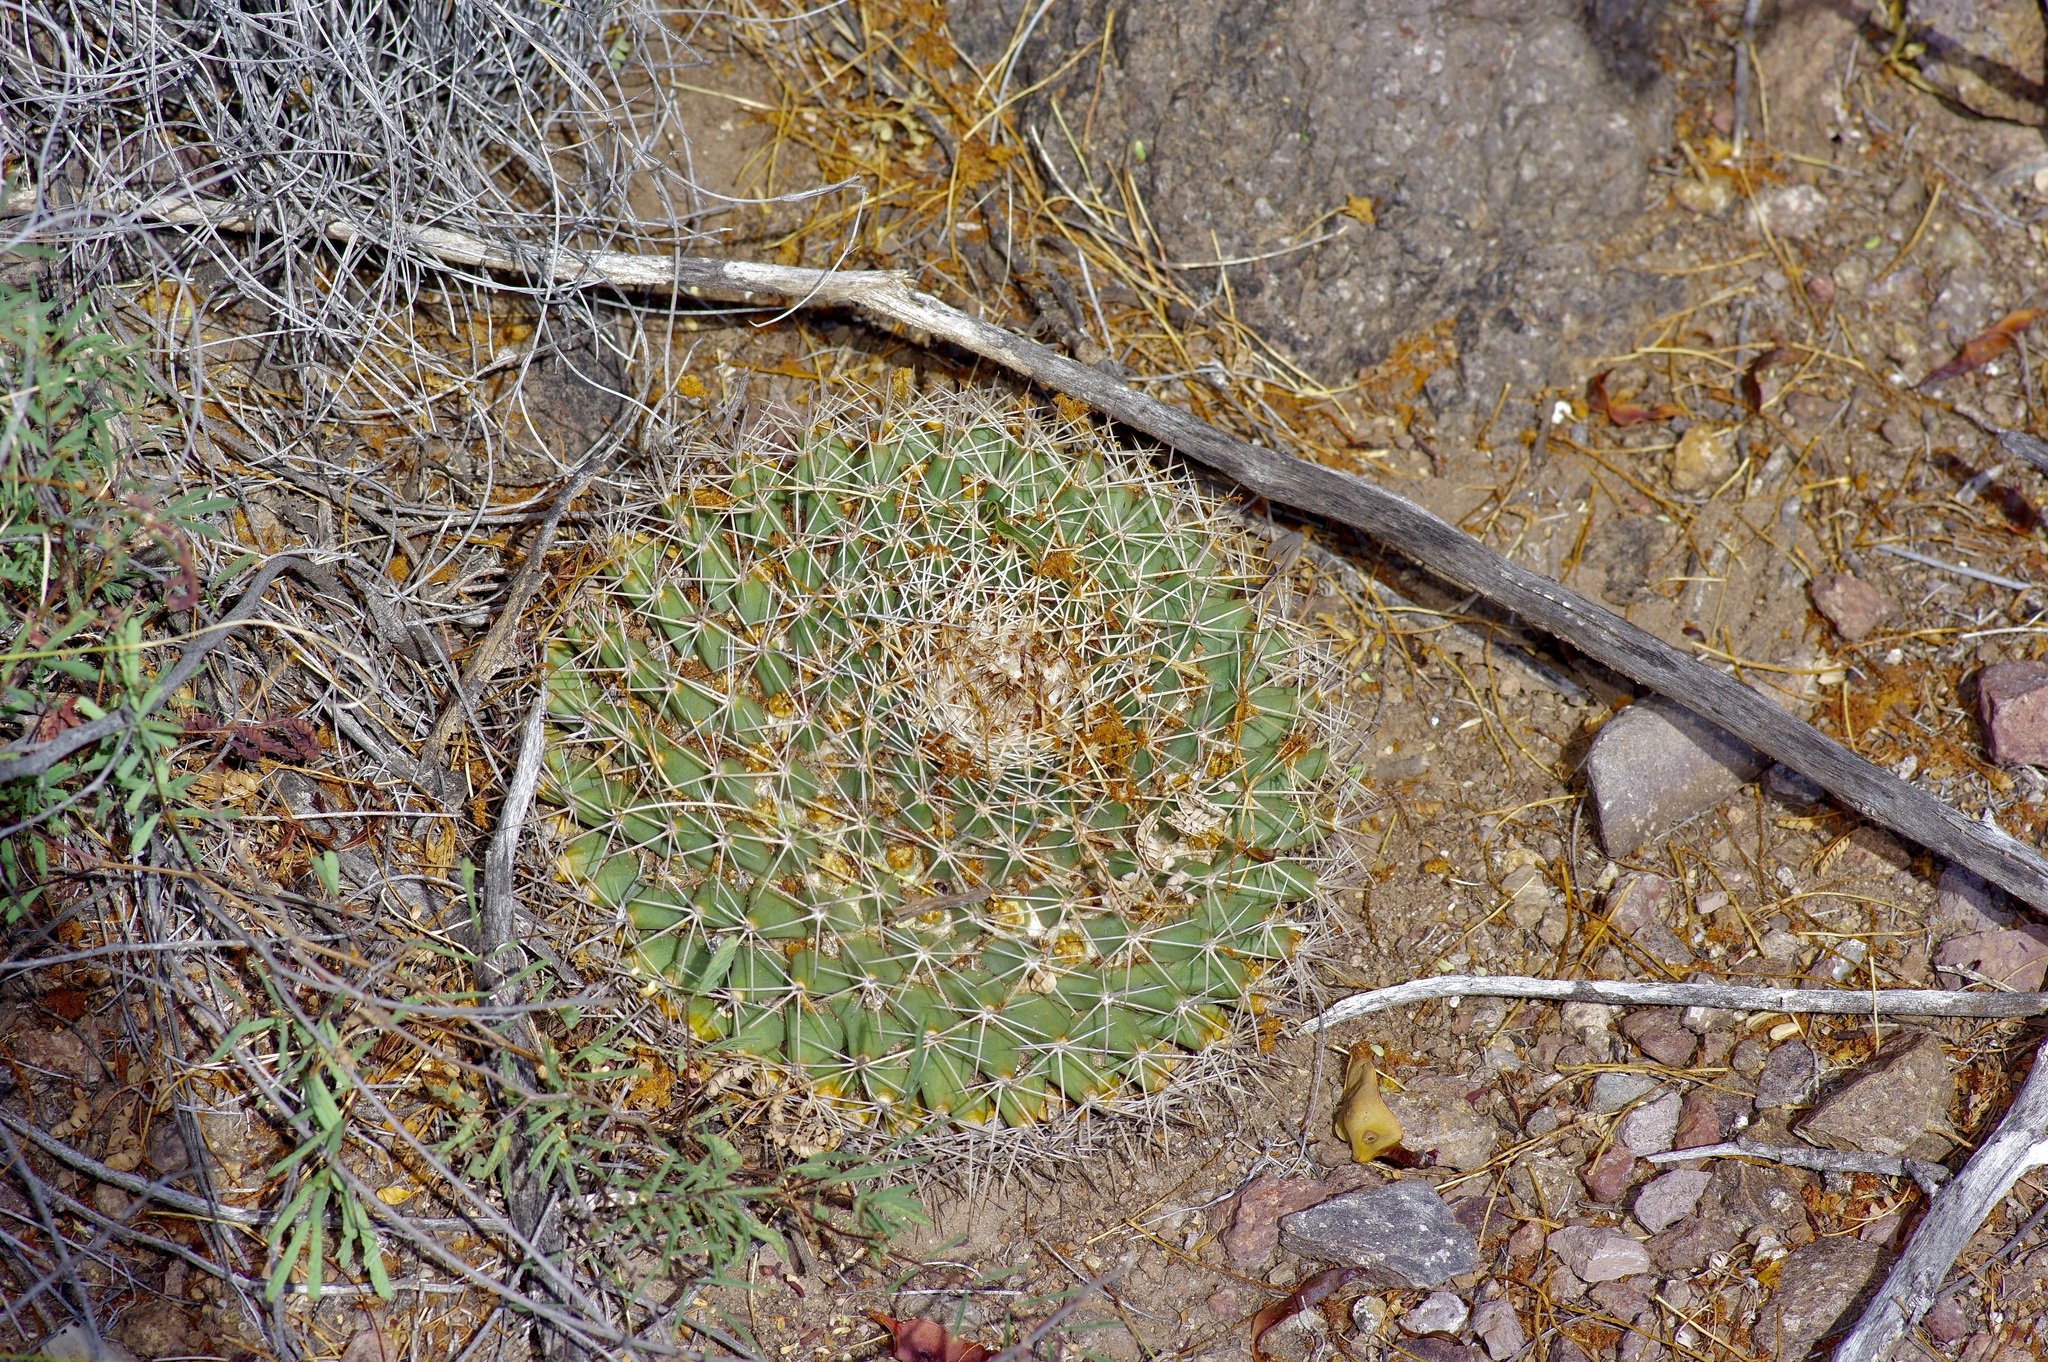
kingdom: Plantae
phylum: Tracheophyta
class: Magnoliopsida
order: Caryophyllales
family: Cactaceae
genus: Mammillaria
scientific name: Mammillaria heyderi
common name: Little nipple cactus
